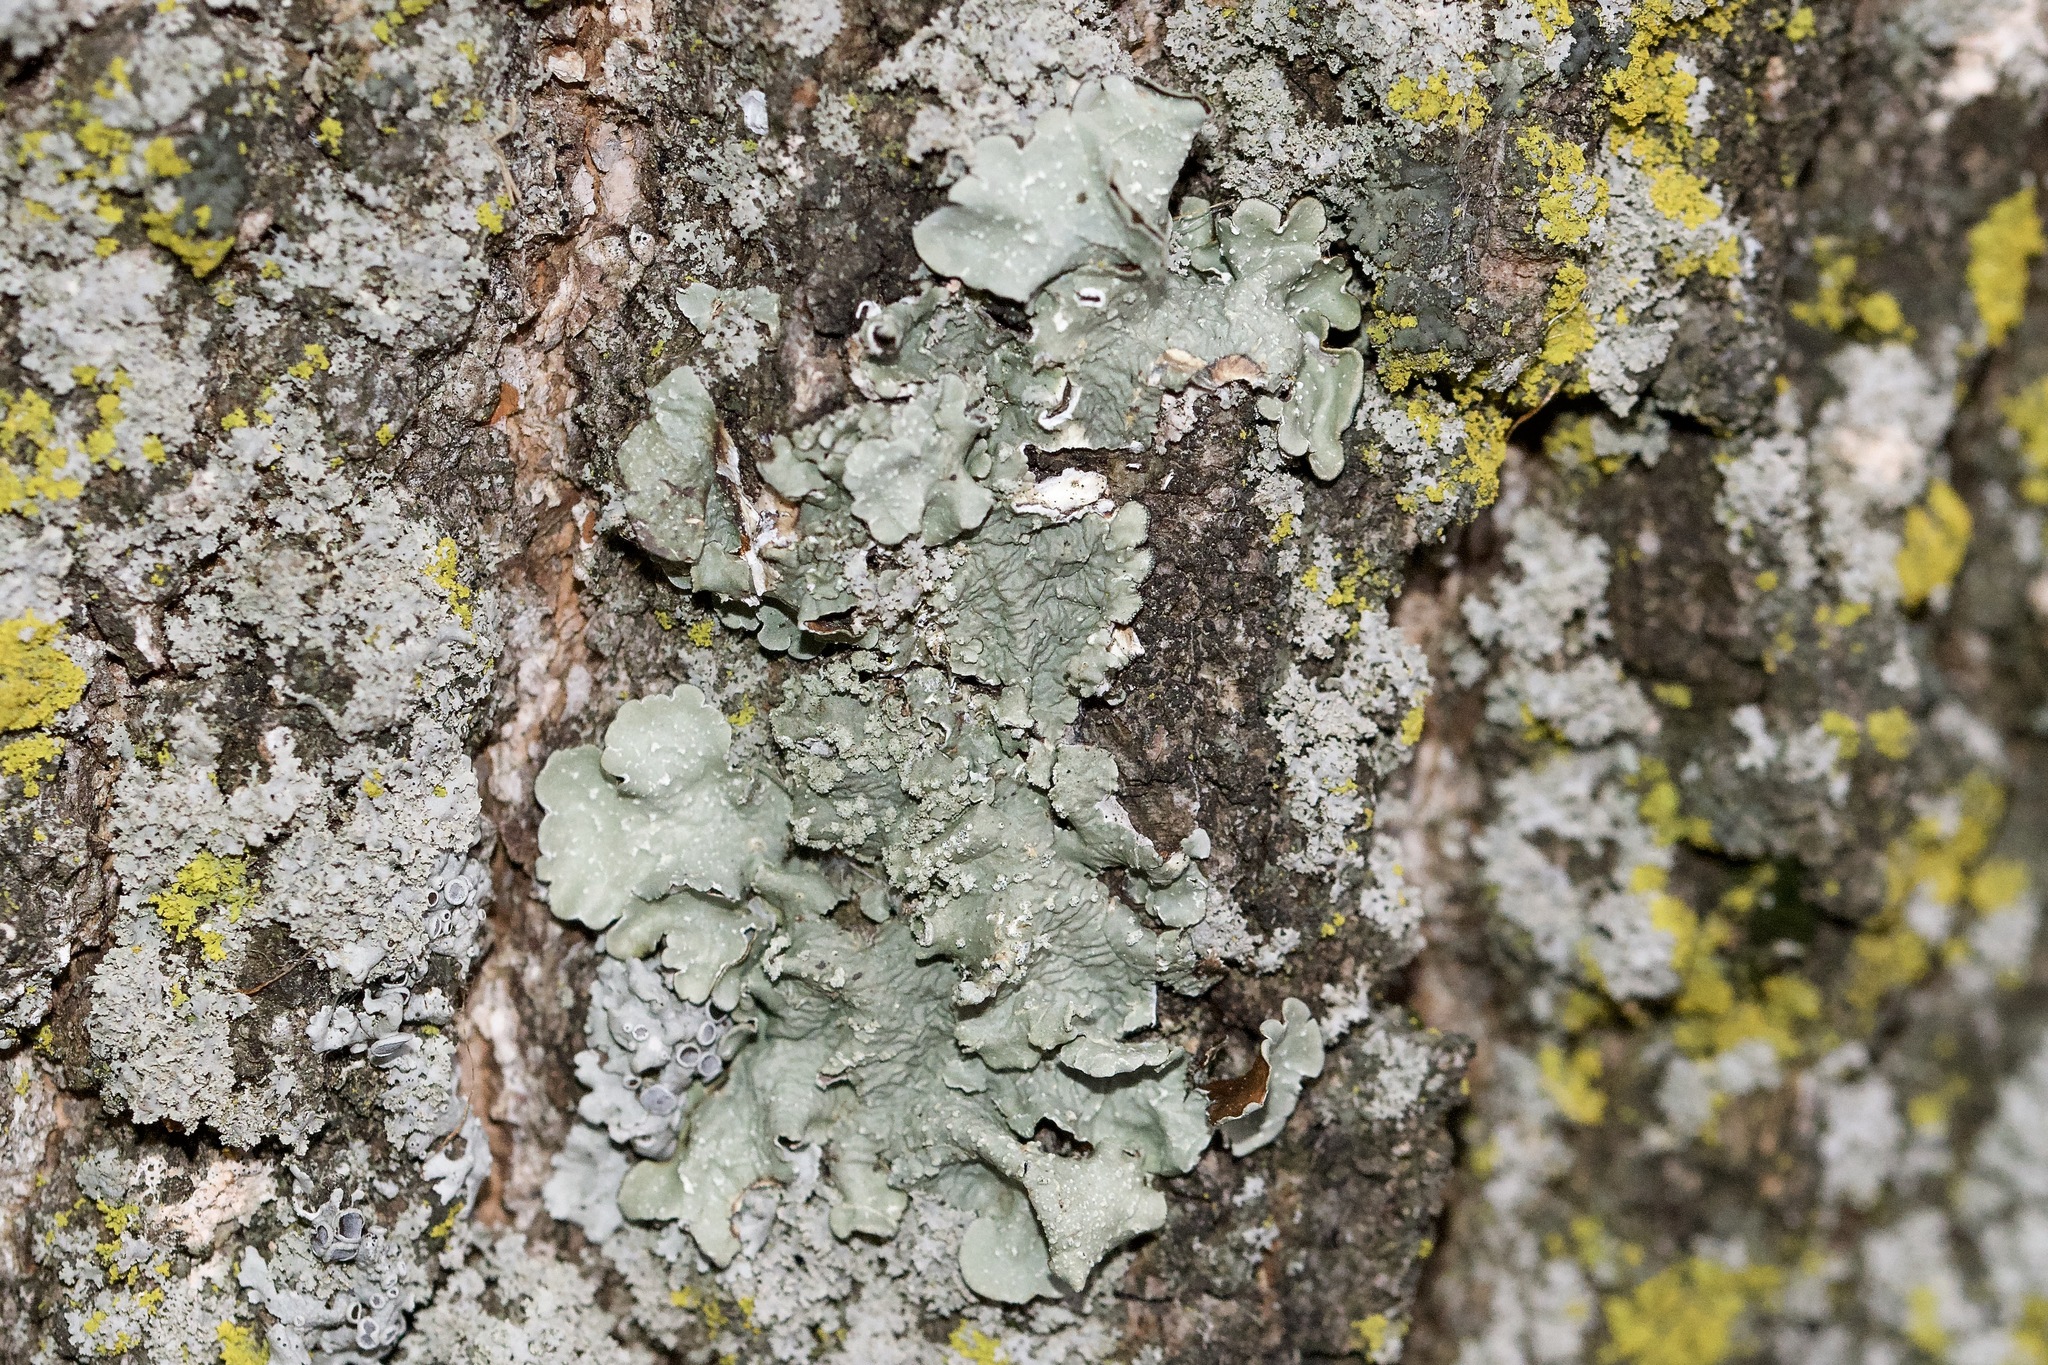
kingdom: Fungi
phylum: Ascomycota
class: Lecanoromycetes
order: Lecanorales
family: Parmeliaceae
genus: Flavopunctelia
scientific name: Flavopunctelia flaventior
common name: Speckled greenshield
